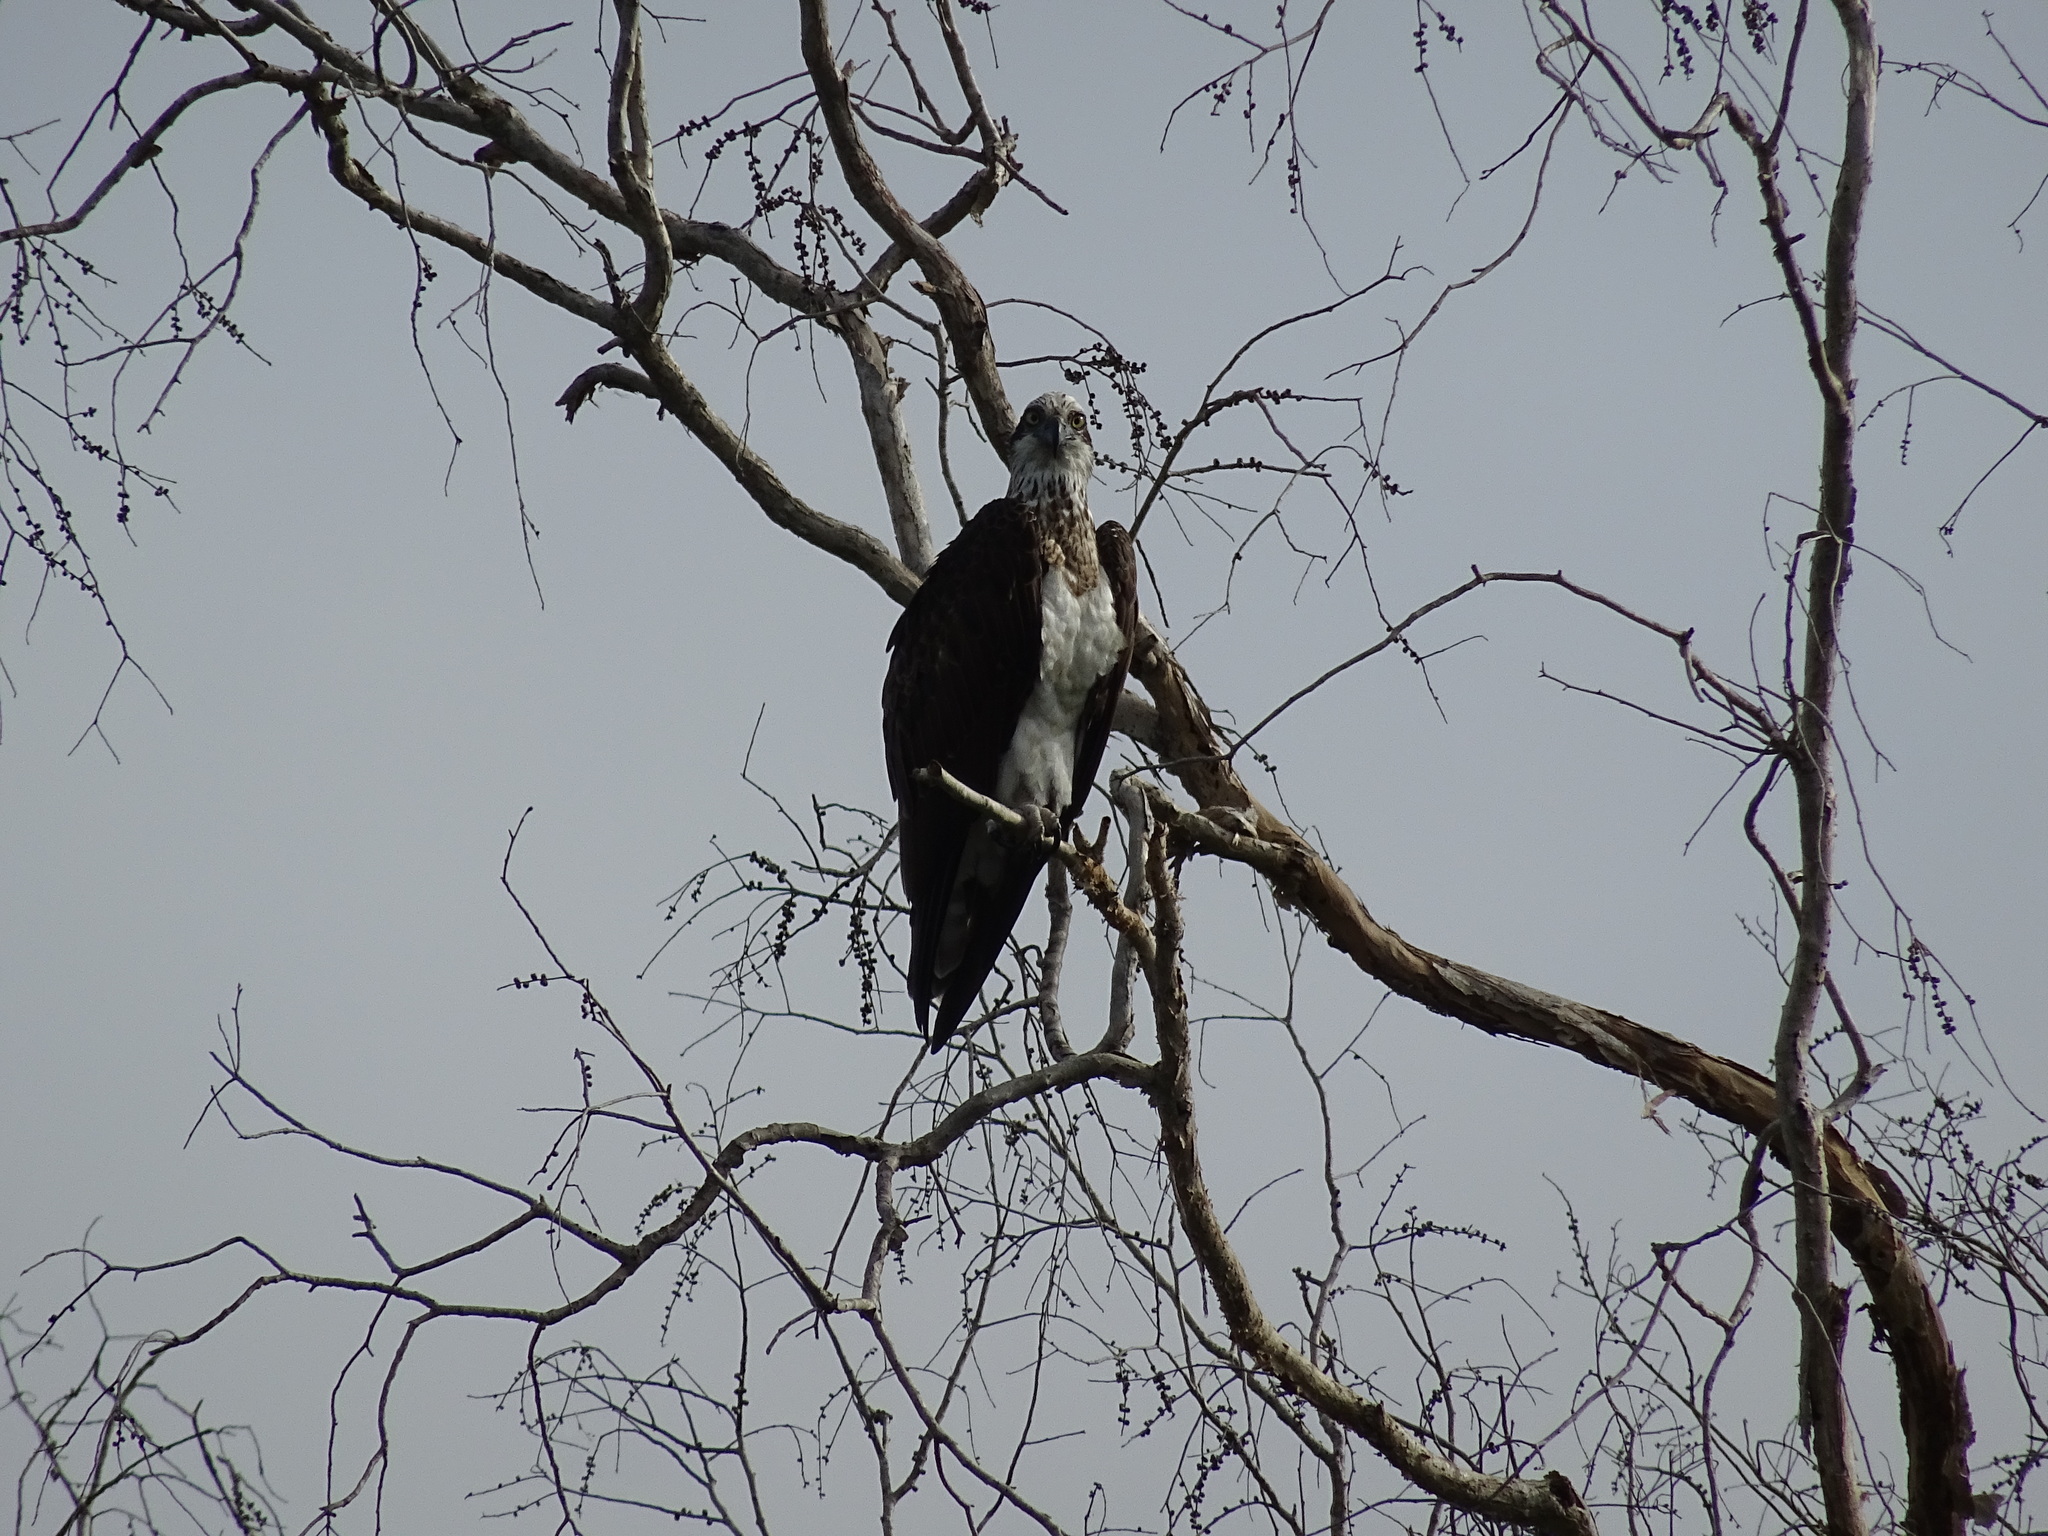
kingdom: Animalia
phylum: Chordata
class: Aves
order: Accipitriformes
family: Pandionidae
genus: Pandion
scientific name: Pandion haliaetus
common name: Osprey
